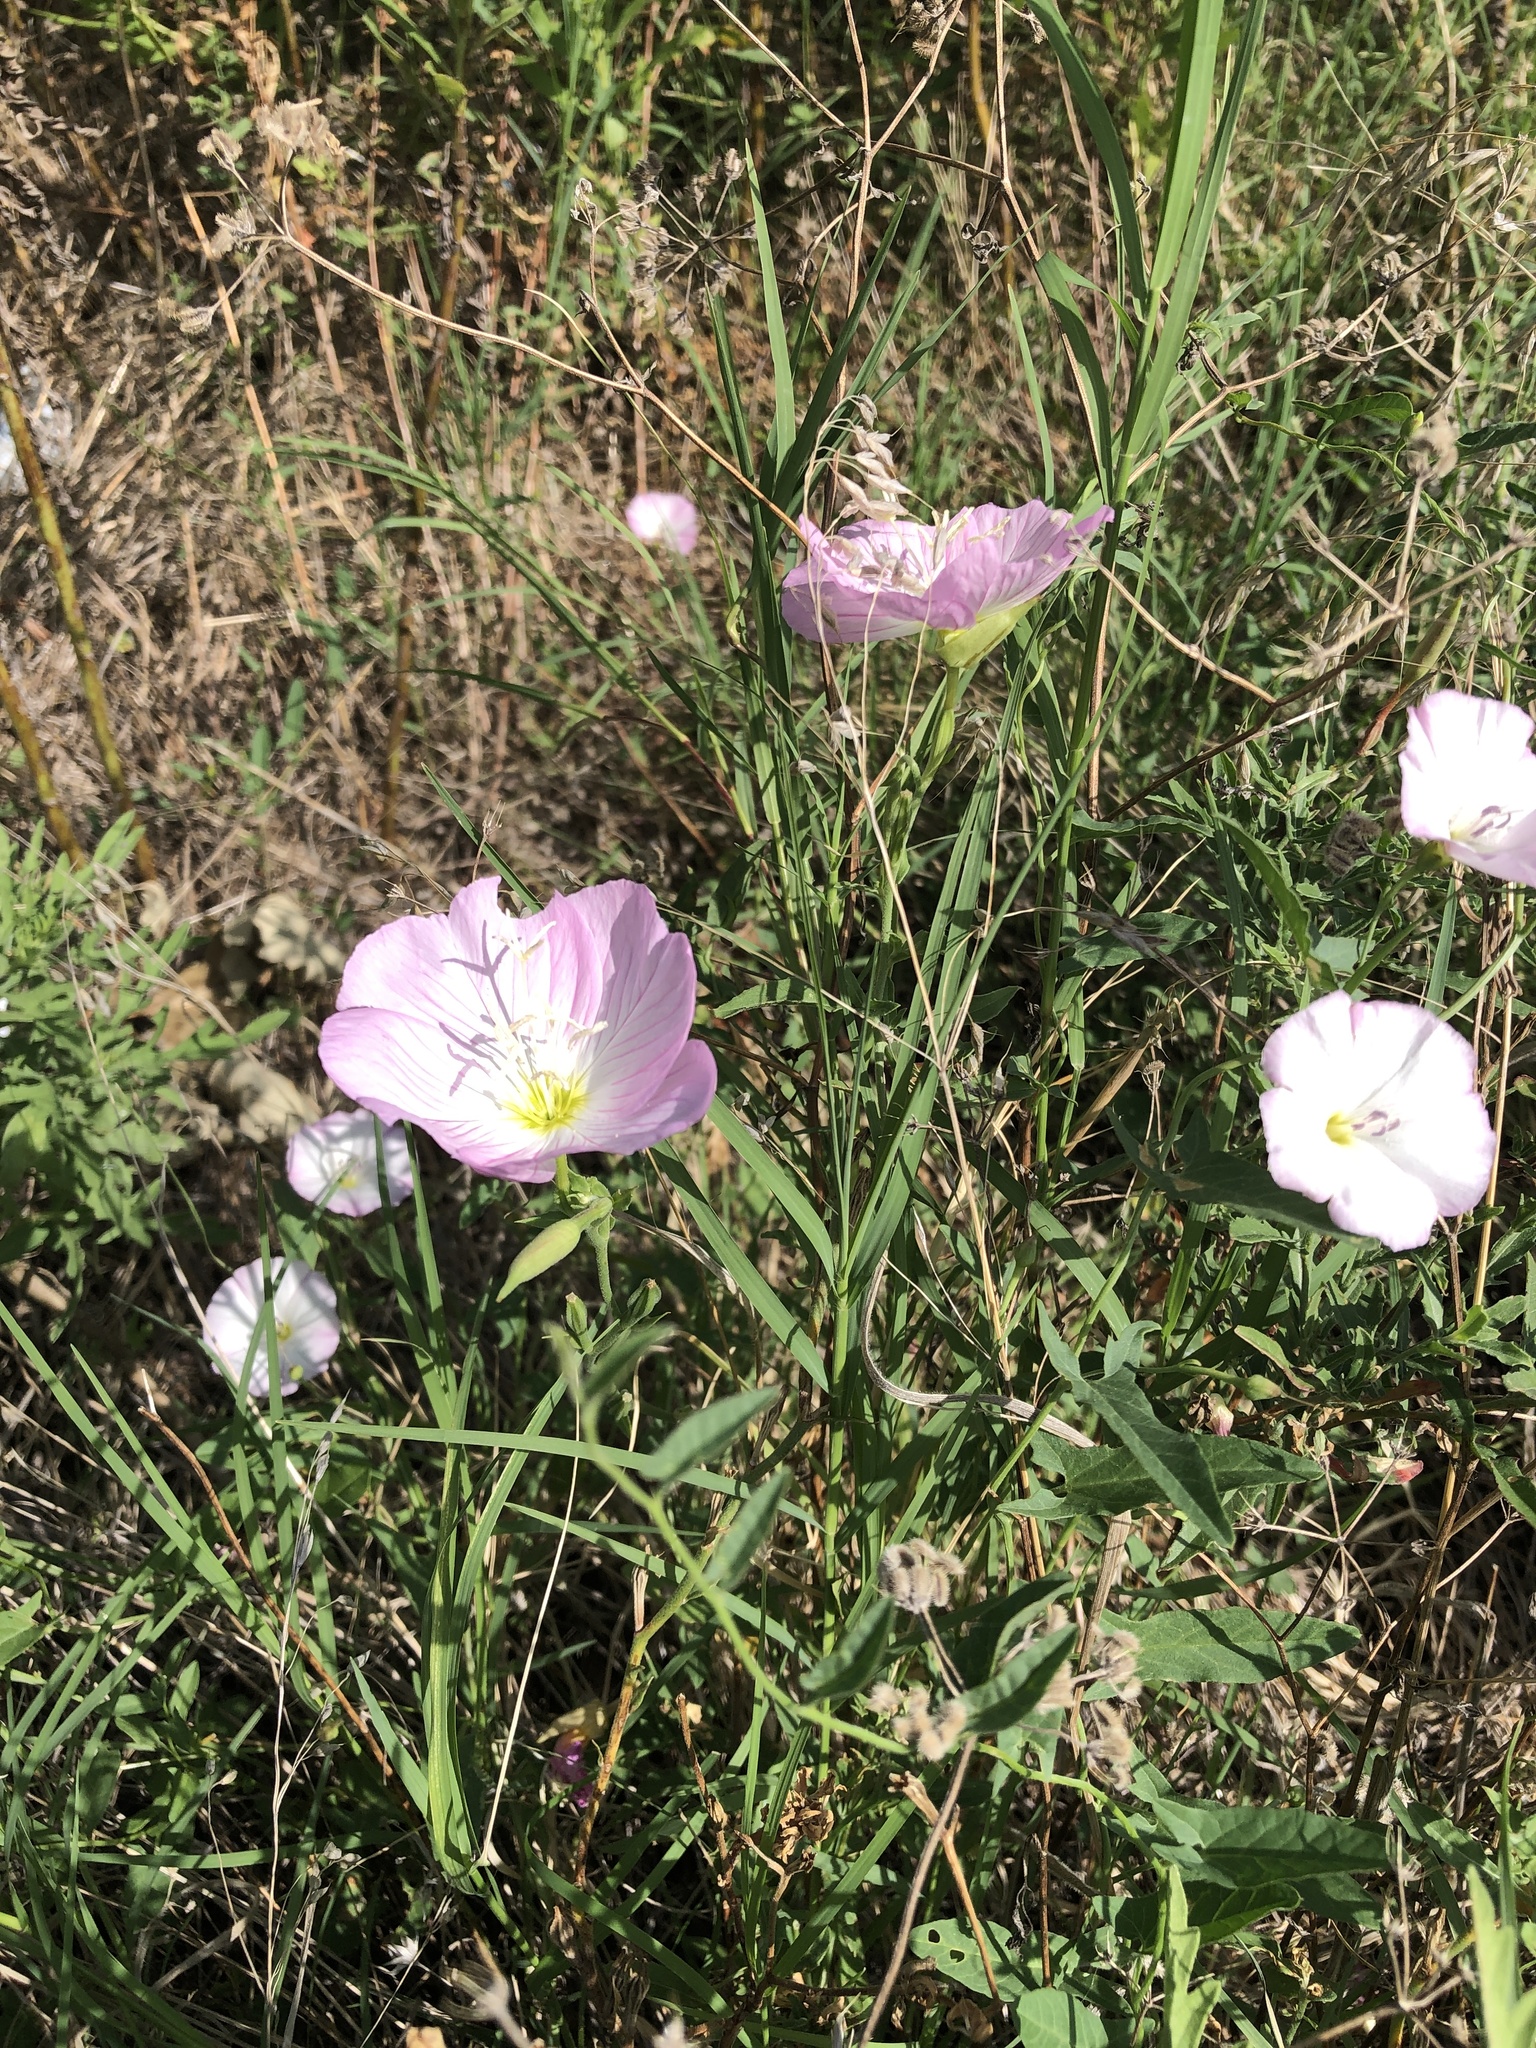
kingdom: Plantae
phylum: Tracheophyta
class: Magnoliopsida
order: Myrtales
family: Onagraceae
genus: Oenothera
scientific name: Oenothera speciosa
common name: White evening-primrose
